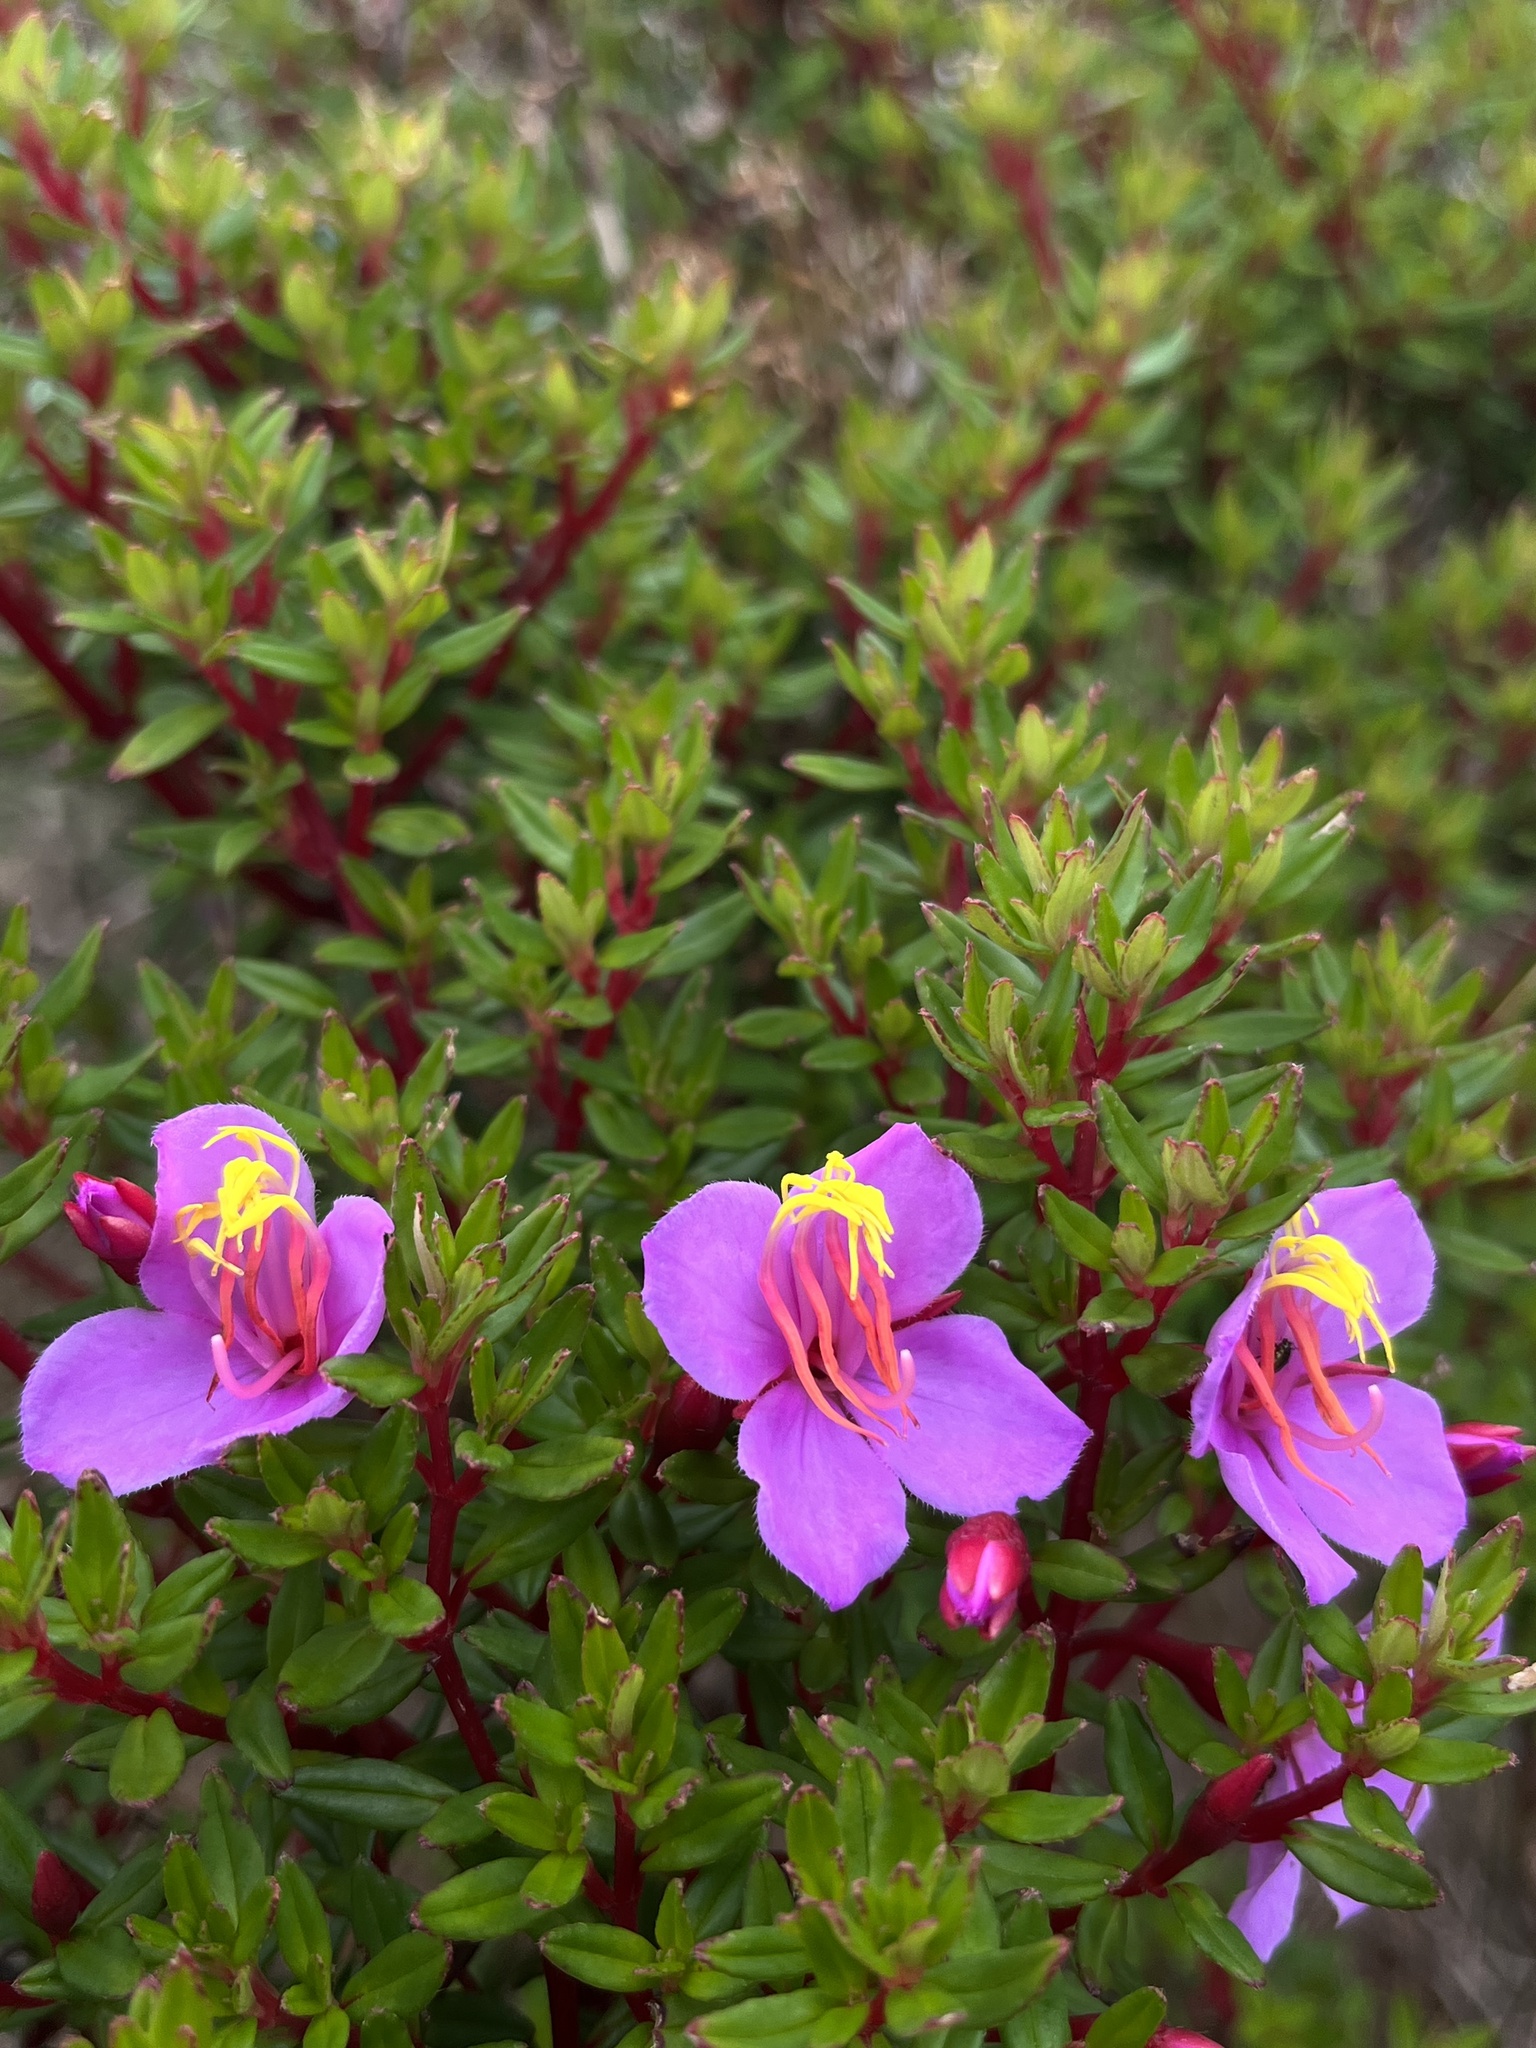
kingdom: Plantae
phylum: Tracheophyta
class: Magnoliopsida
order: Myrtales
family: Melastomataceae
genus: Monochaetum
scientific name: Monochaetum uribei
